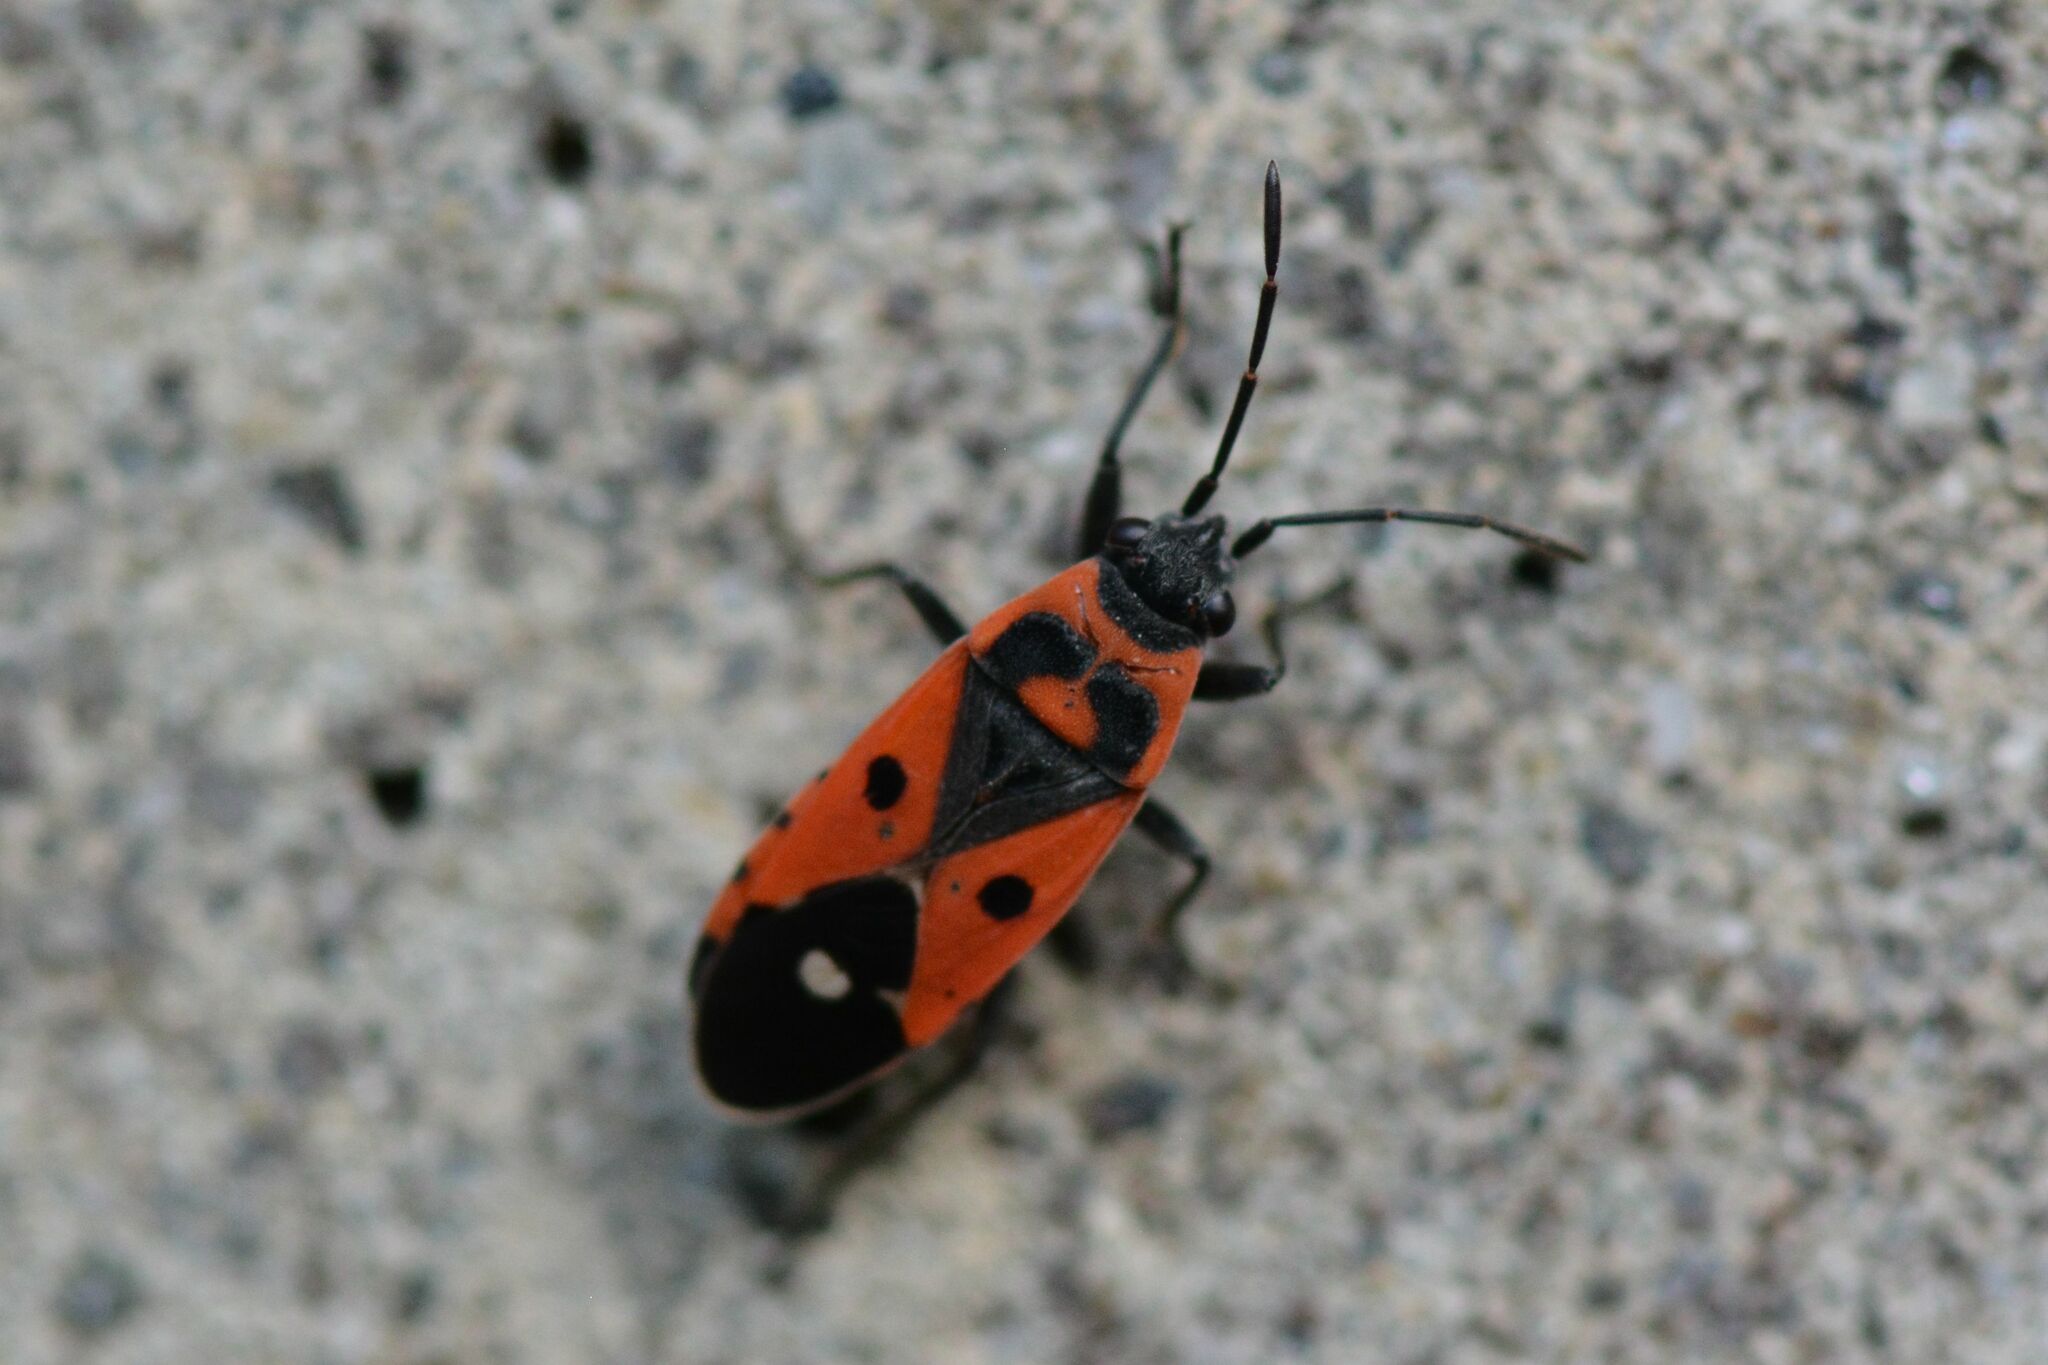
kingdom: Animalia
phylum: Arthropoda
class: Insecta
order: Hemiptera
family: Lygaeidae
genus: Melanocoryphus
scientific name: Melanocoryphus albomaculatus
